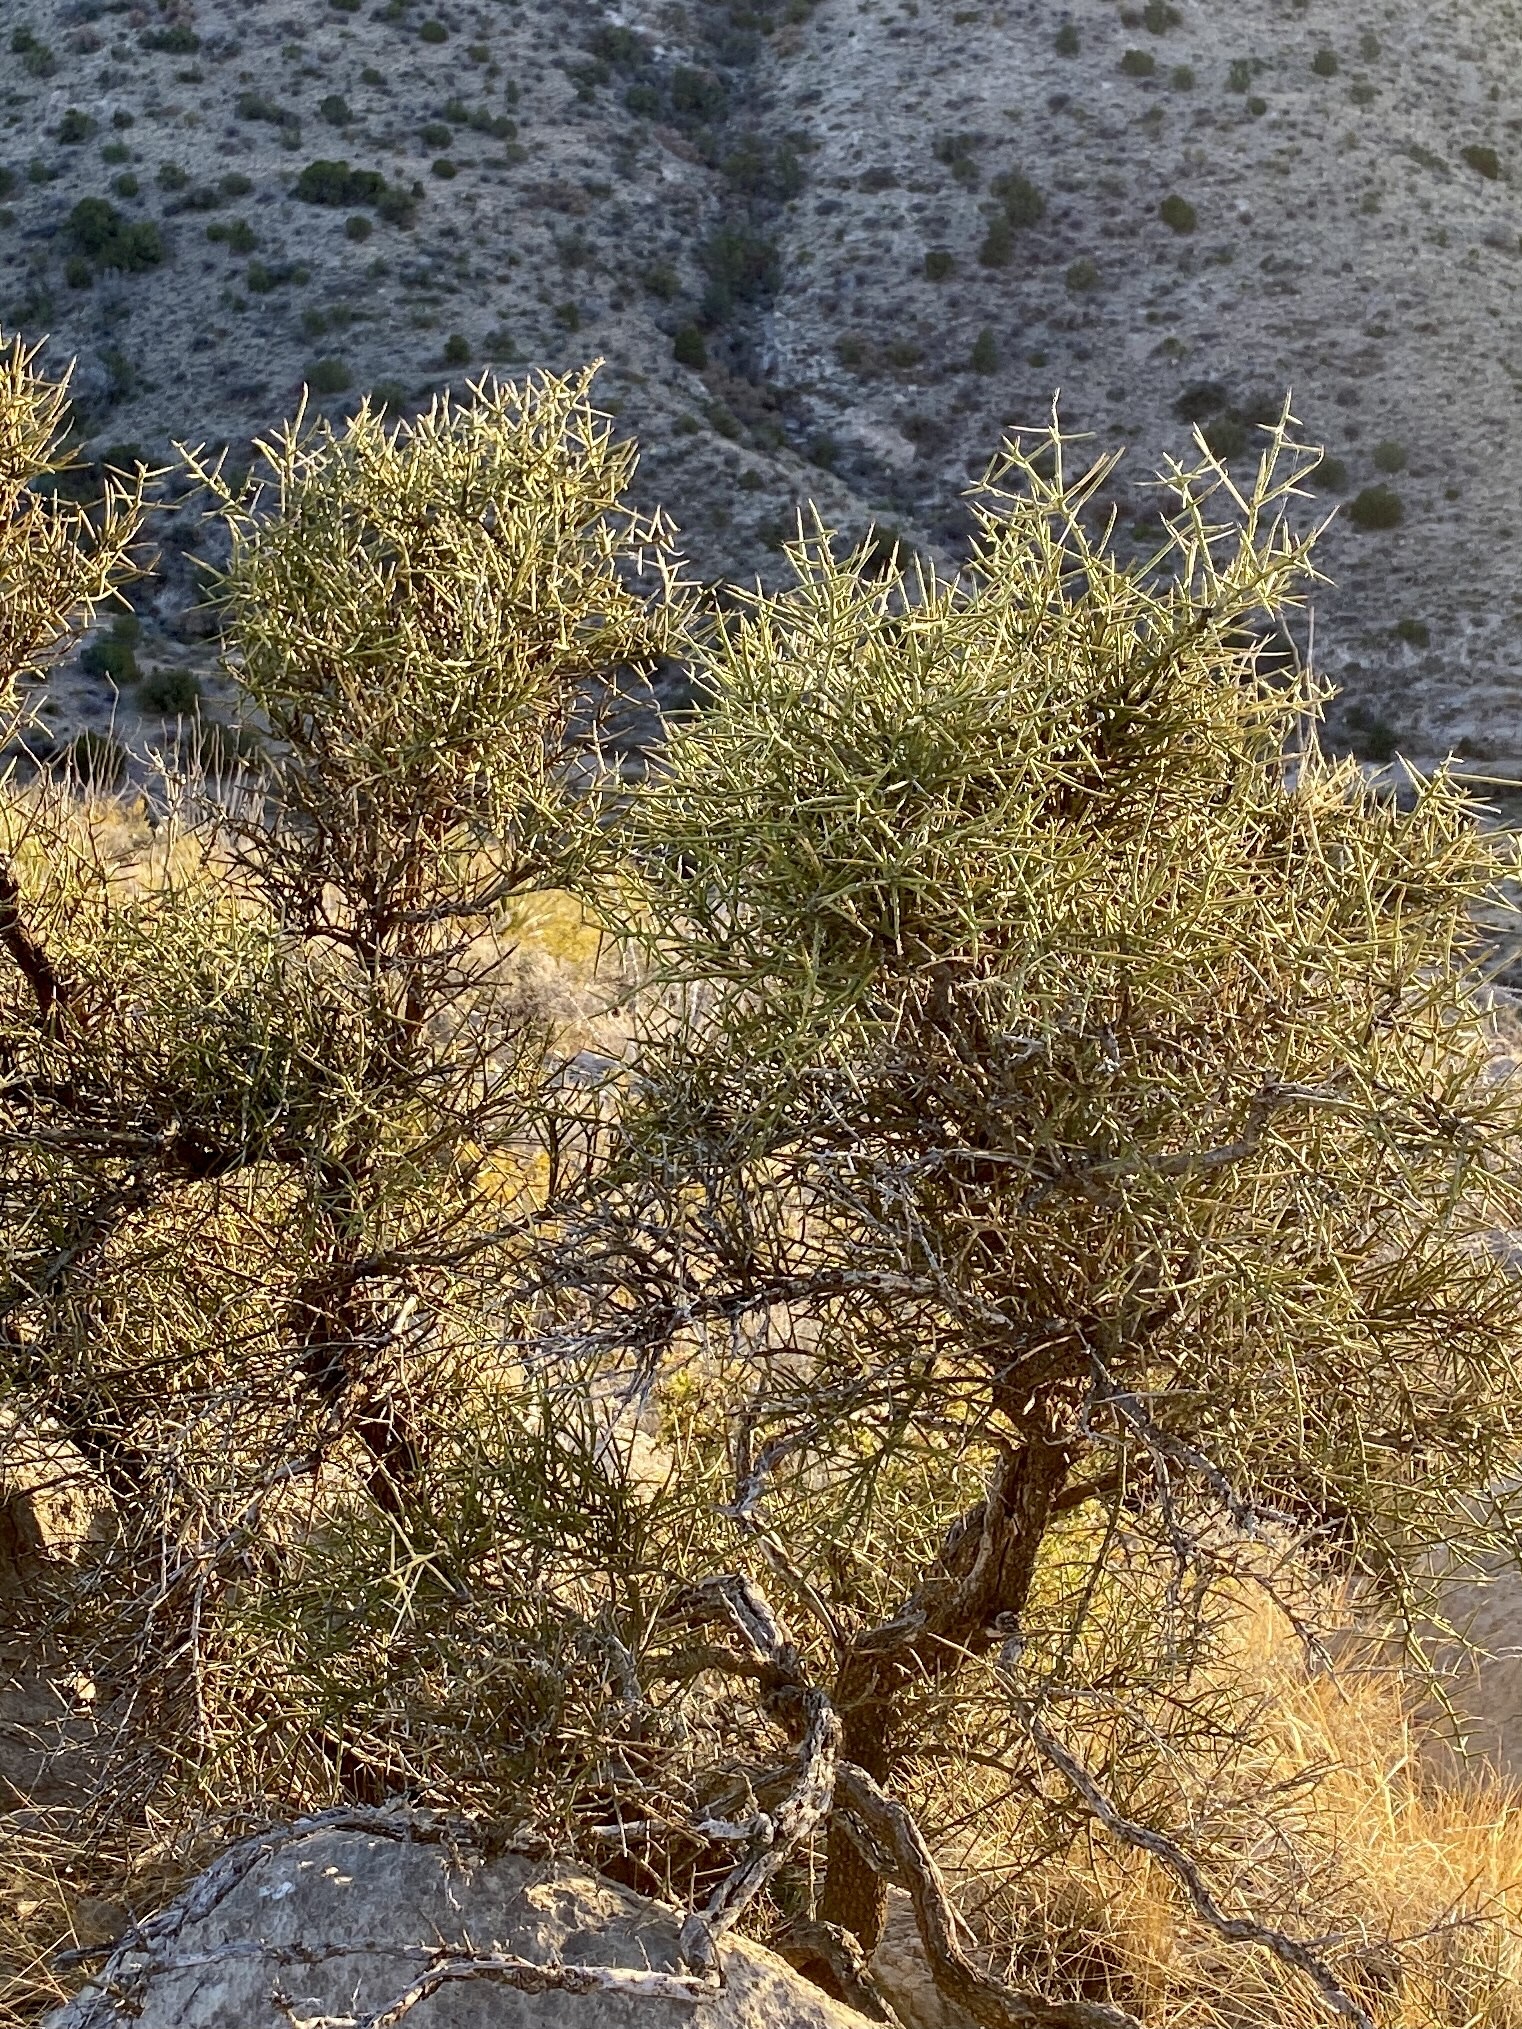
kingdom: Plantae
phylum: Tracheophyta
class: Magnoliopsida
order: Brassicales
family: Koeberliniaceae
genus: Koeberlinia
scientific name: Koeberlinia spinosa
